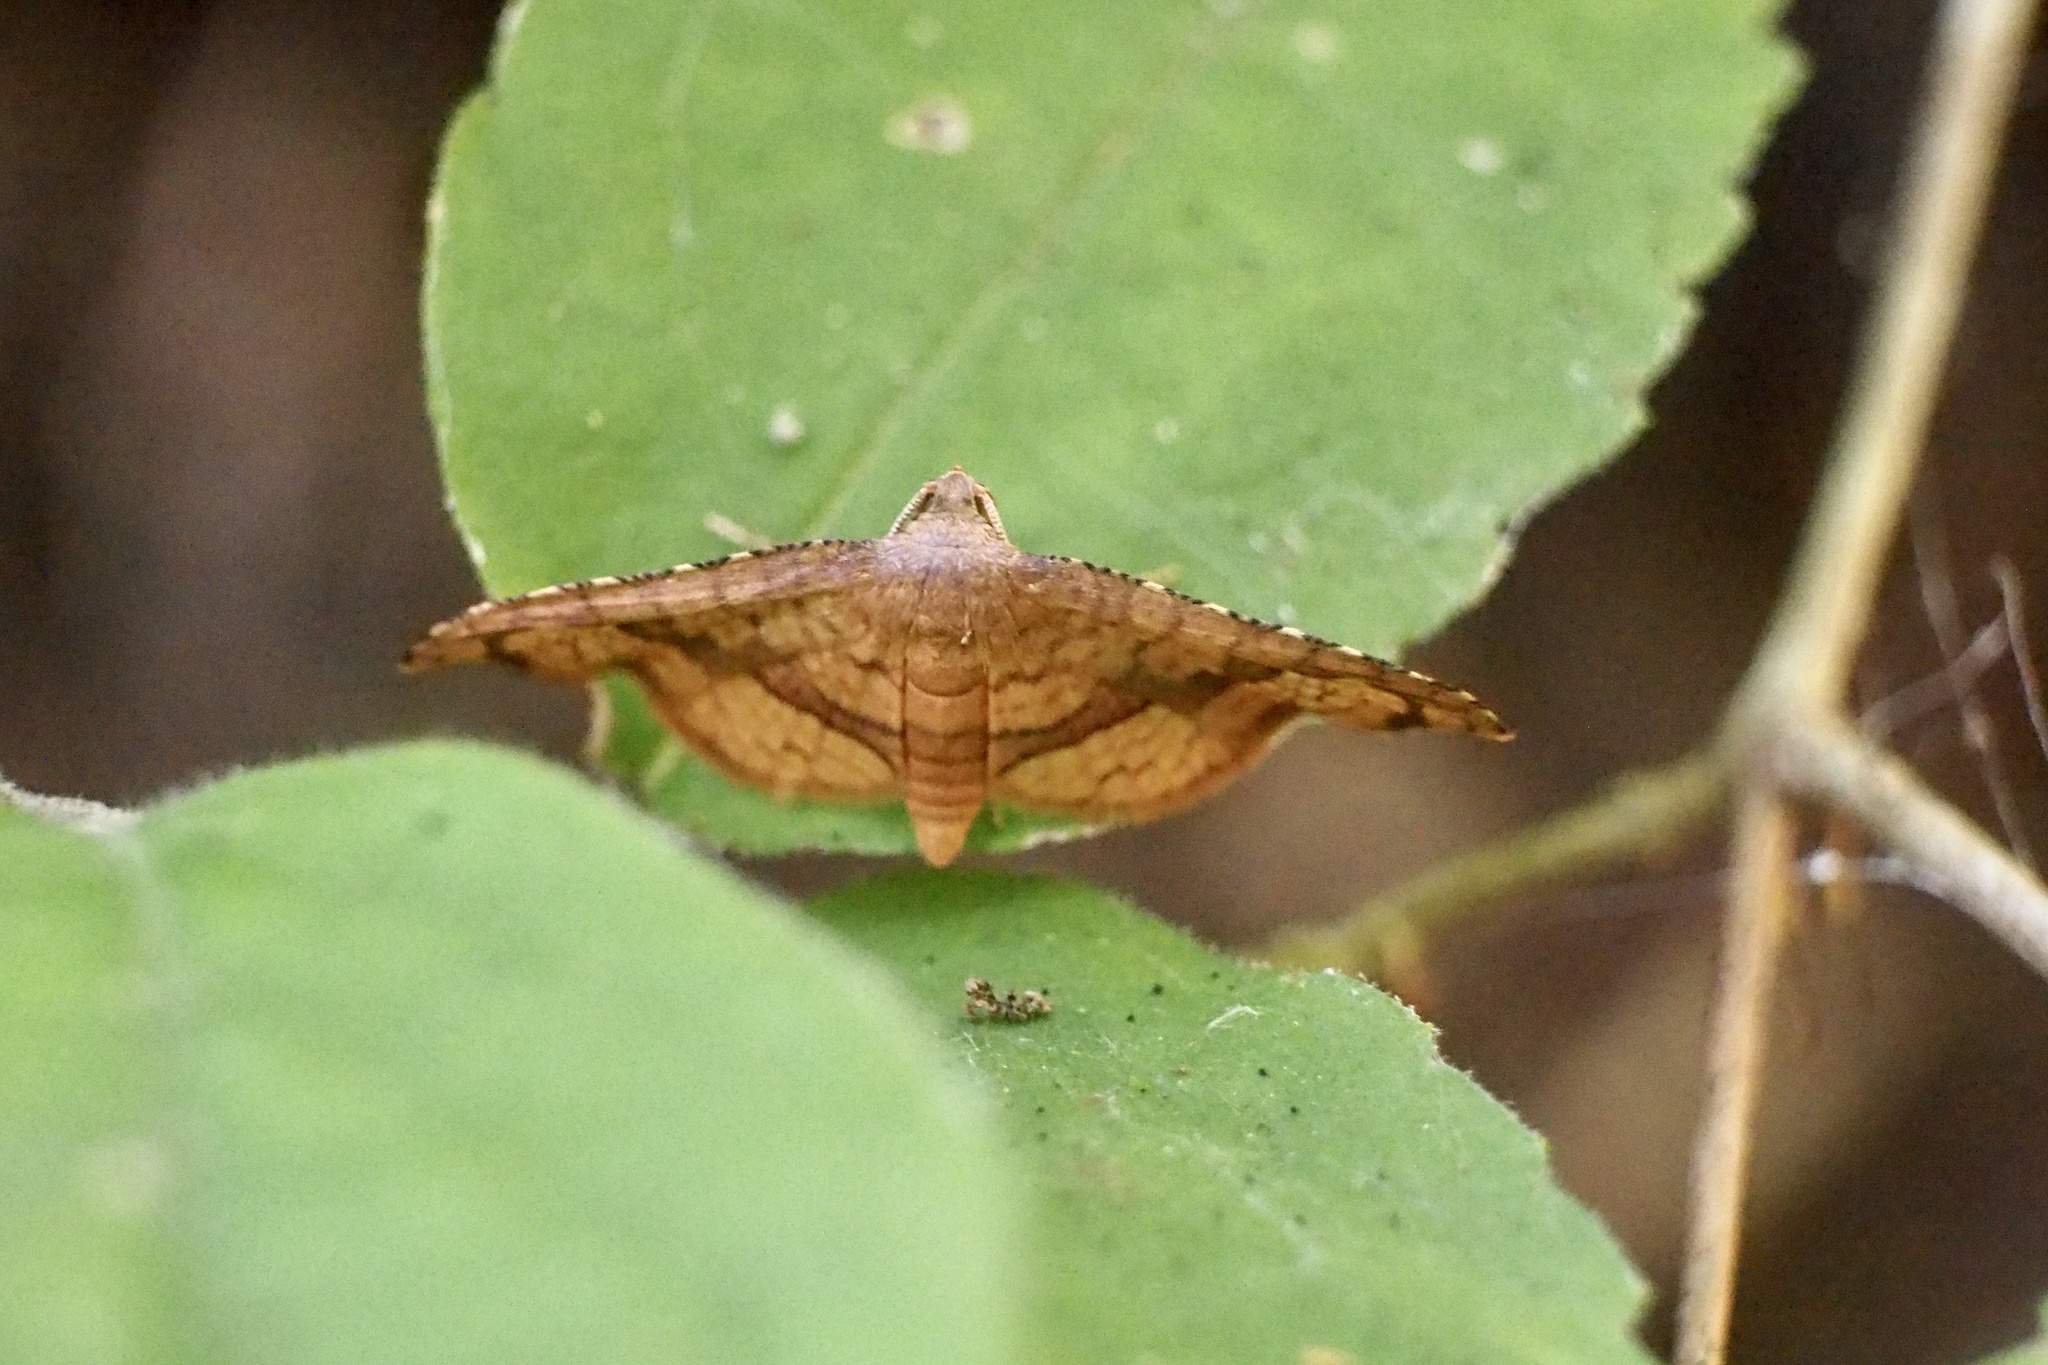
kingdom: Animalia
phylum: Arthropoda
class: Insecta
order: Lepidoptera
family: Thyrididae
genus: Rhodoneura
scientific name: Rhodoneura vittula
